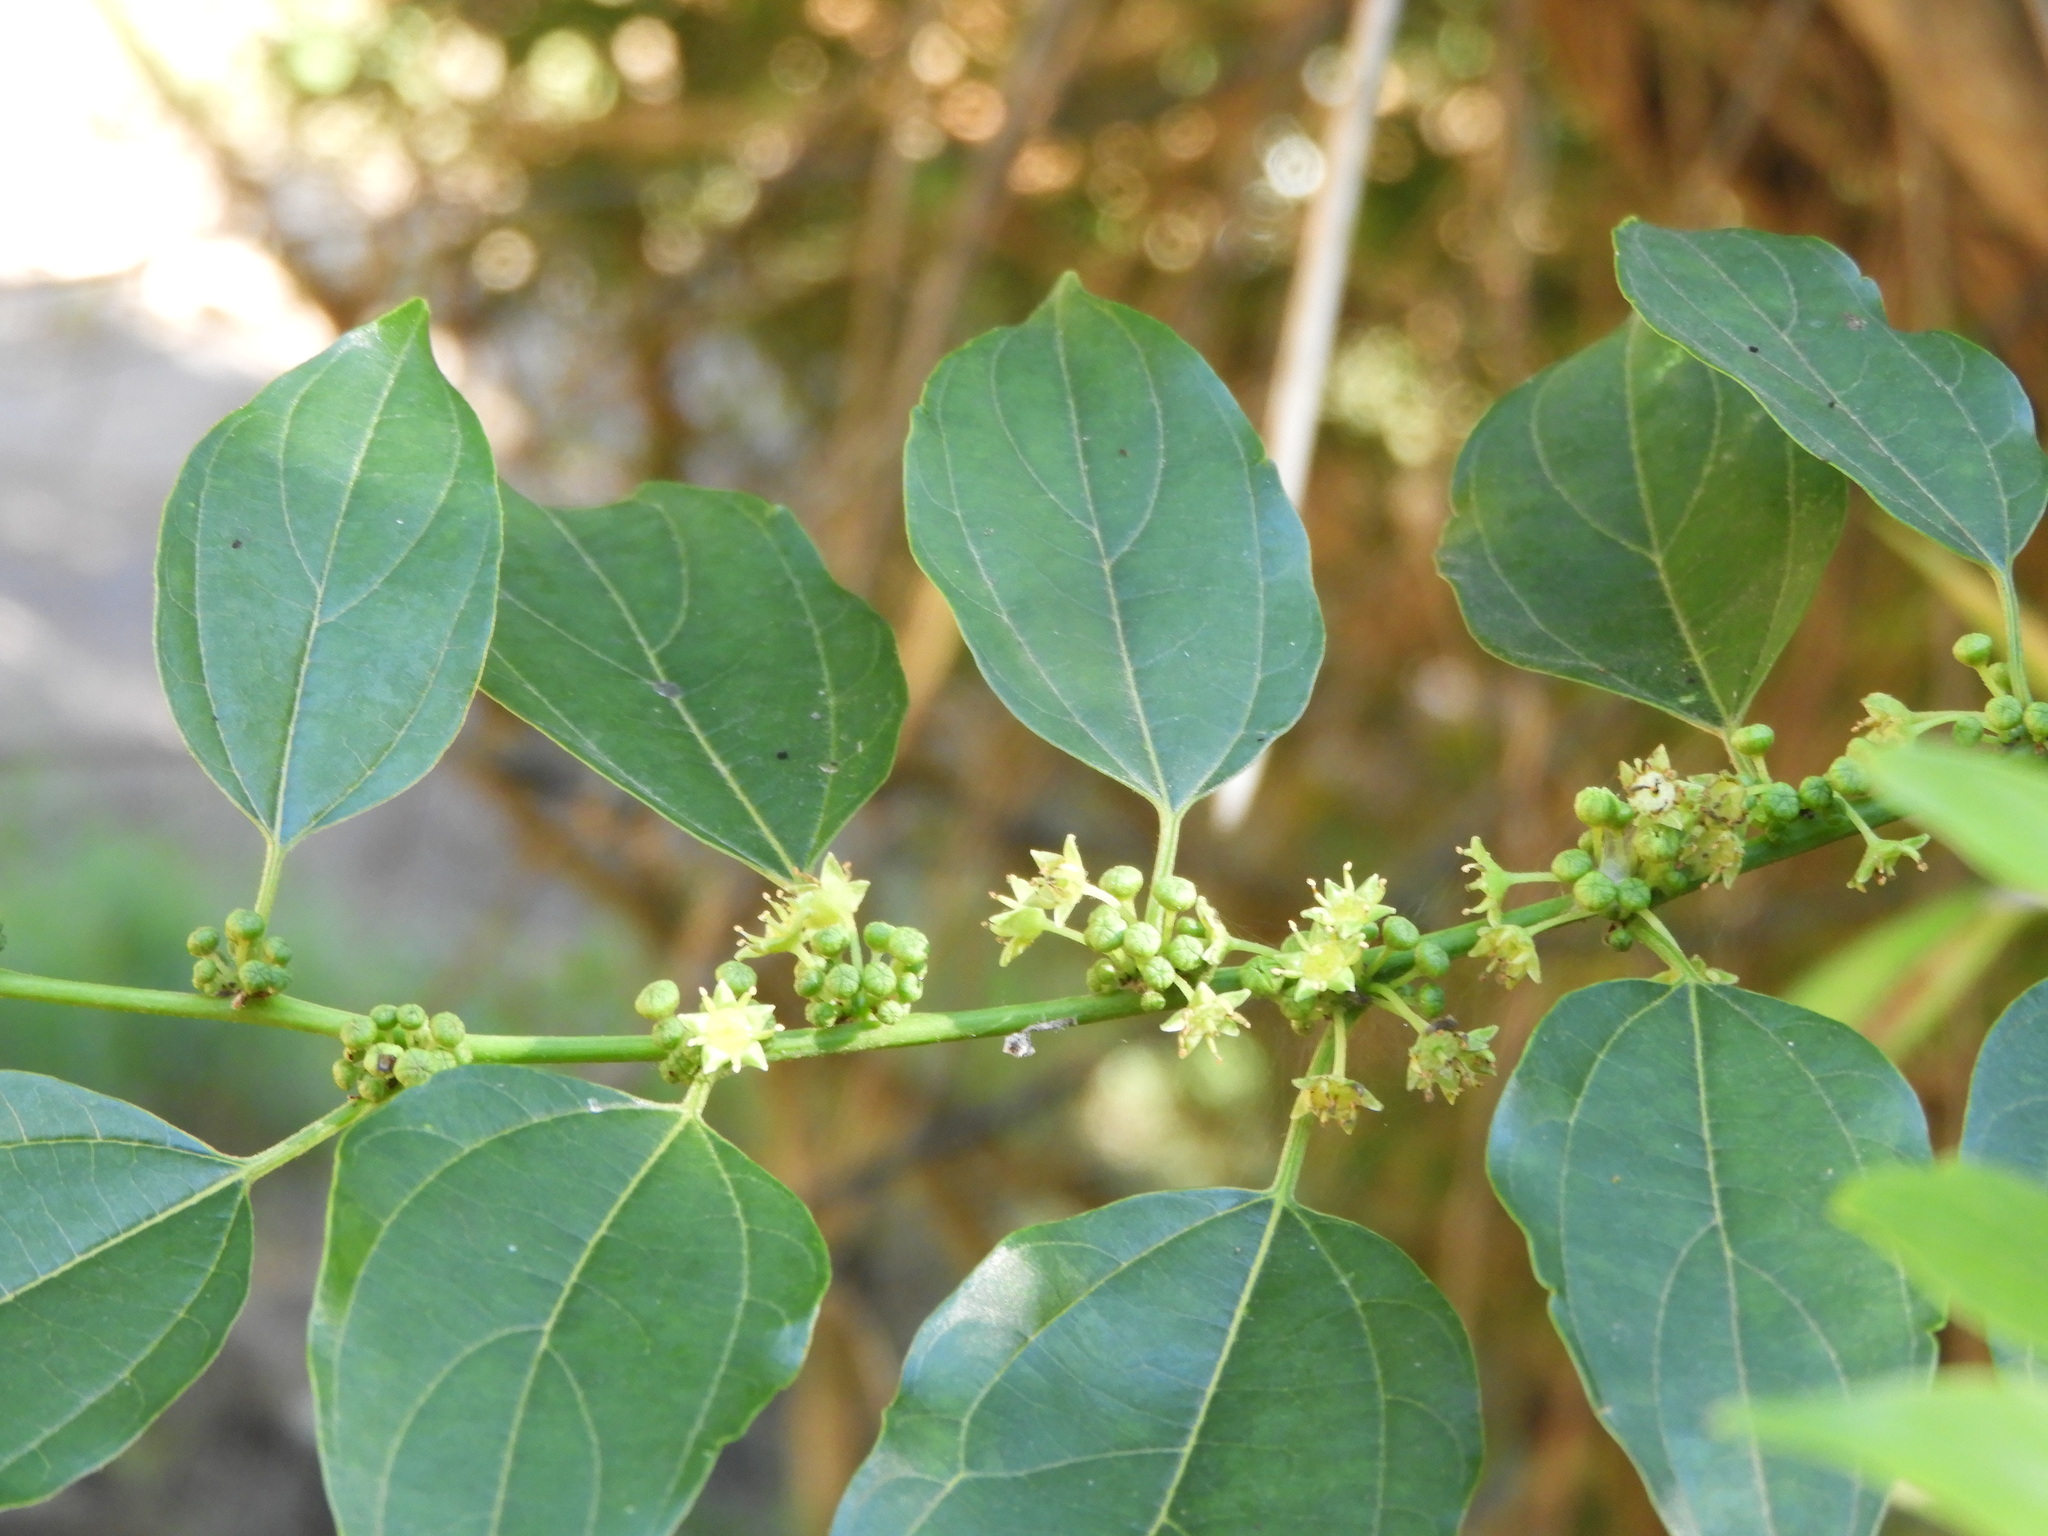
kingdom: Plantae
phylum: Tracheophyta
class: Magnoliopsida
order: Rosales
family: Rhamnaceae
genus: Colubrina
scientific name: Colubrina triflora
